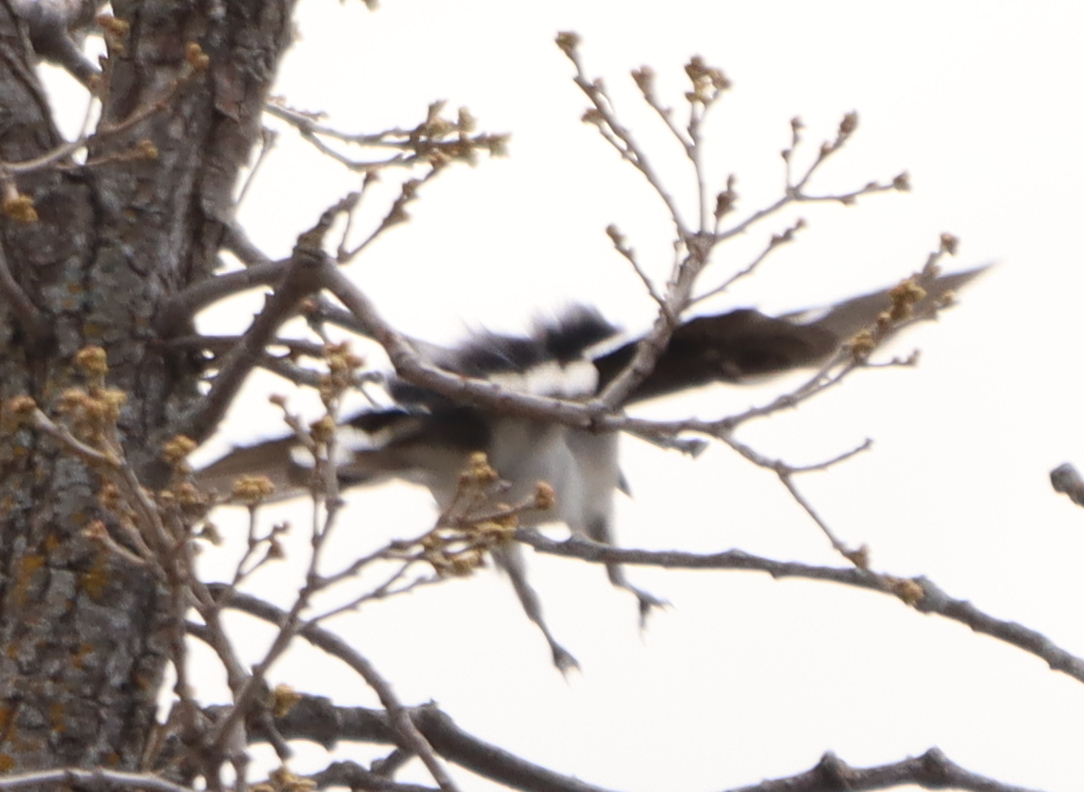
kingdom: Animalia
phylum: Chordata
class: Aves
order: Passeriformes
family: Corvidae
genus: Cyanocitta
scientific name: Cyanocitta cristata
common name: Blue jay
